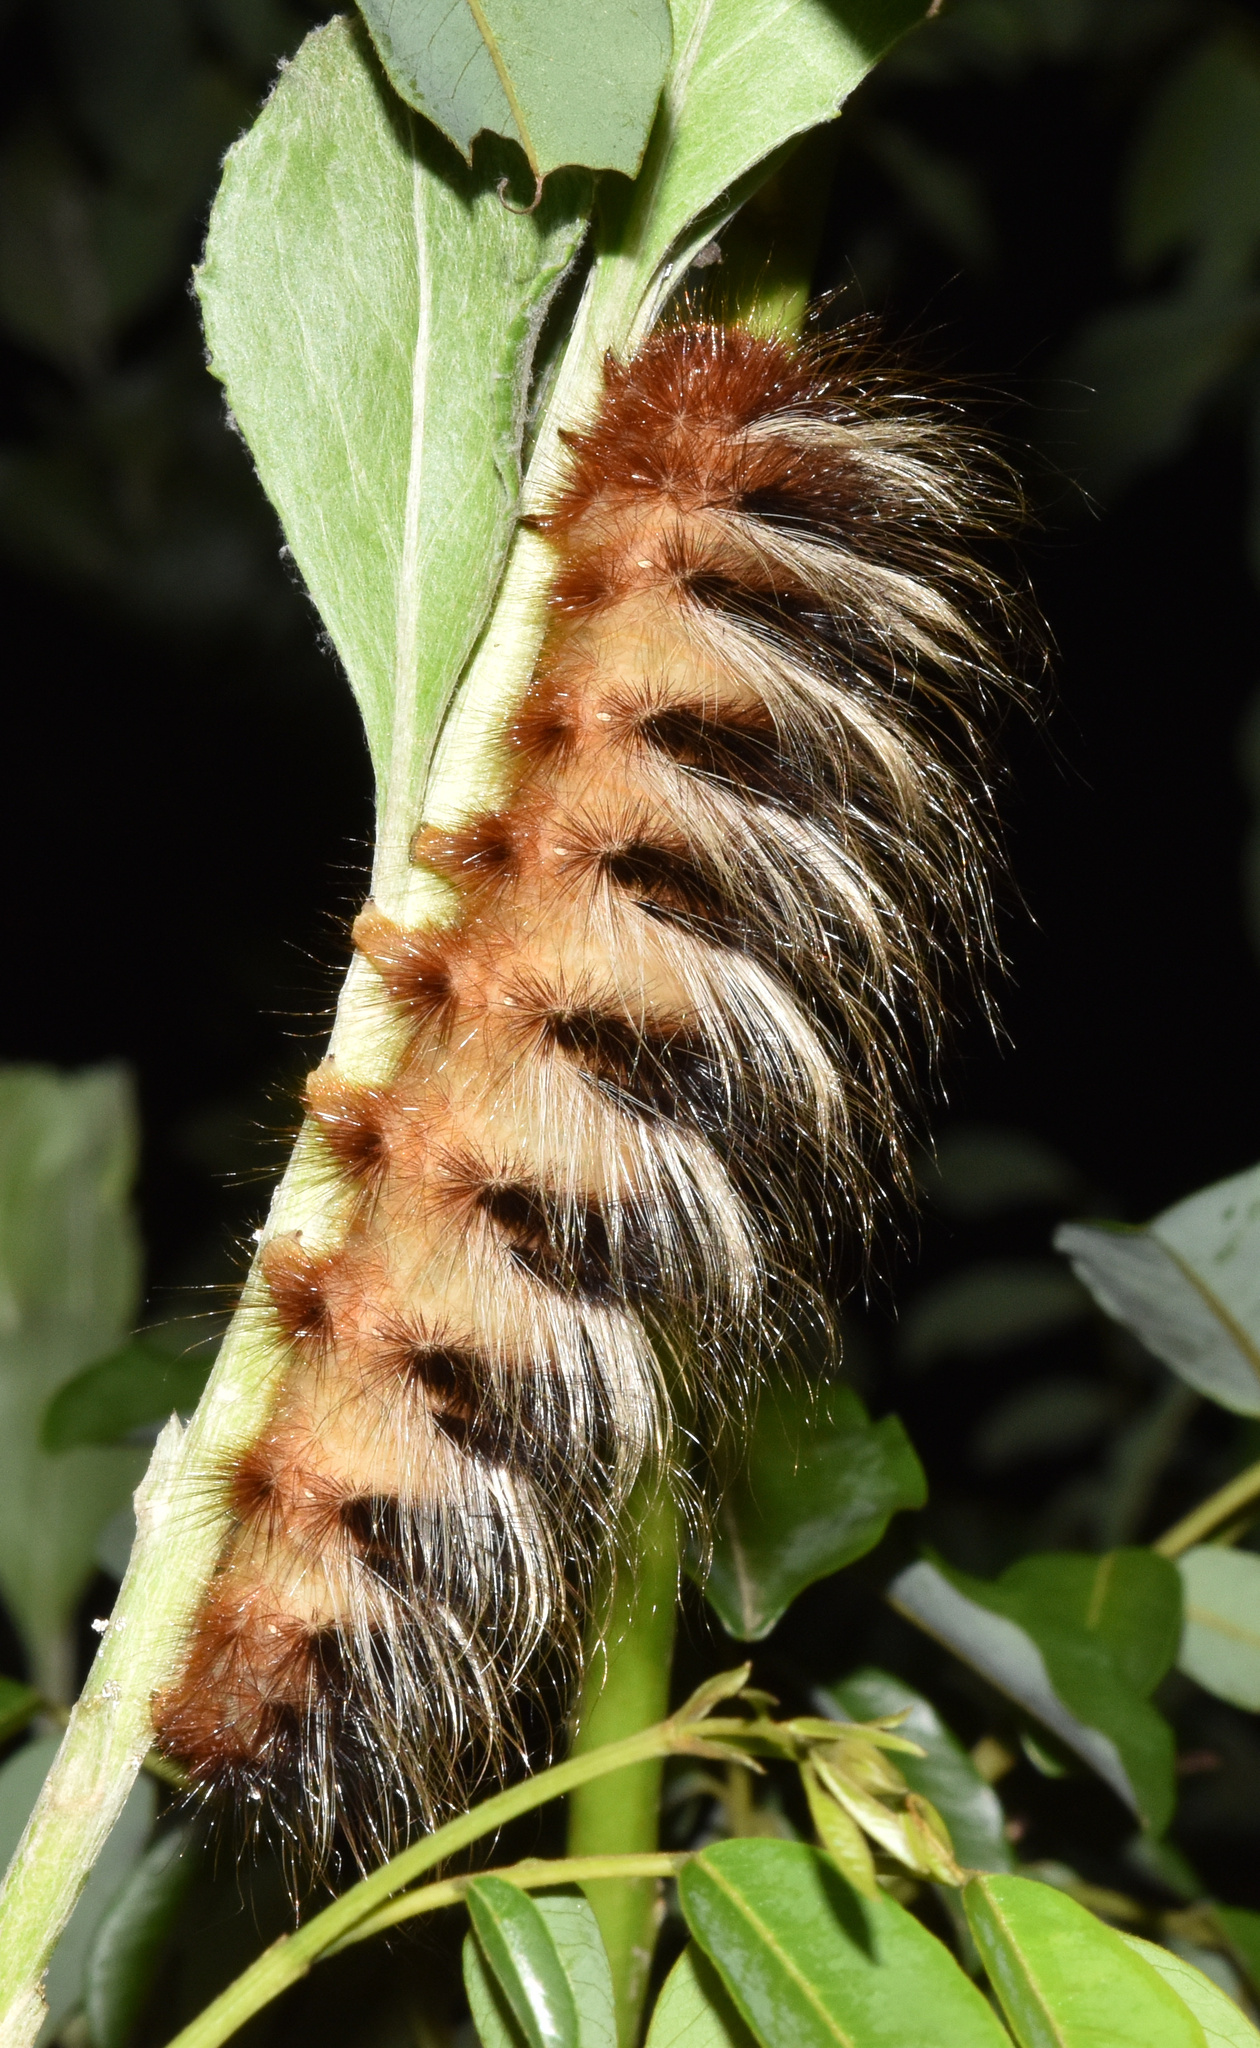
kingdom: Animalia
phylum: Arthropoda
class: Insecta
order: Lepidoptera
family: Eupterotidae
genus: Striphnopteryx
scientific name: Striphnopteryx edulis
